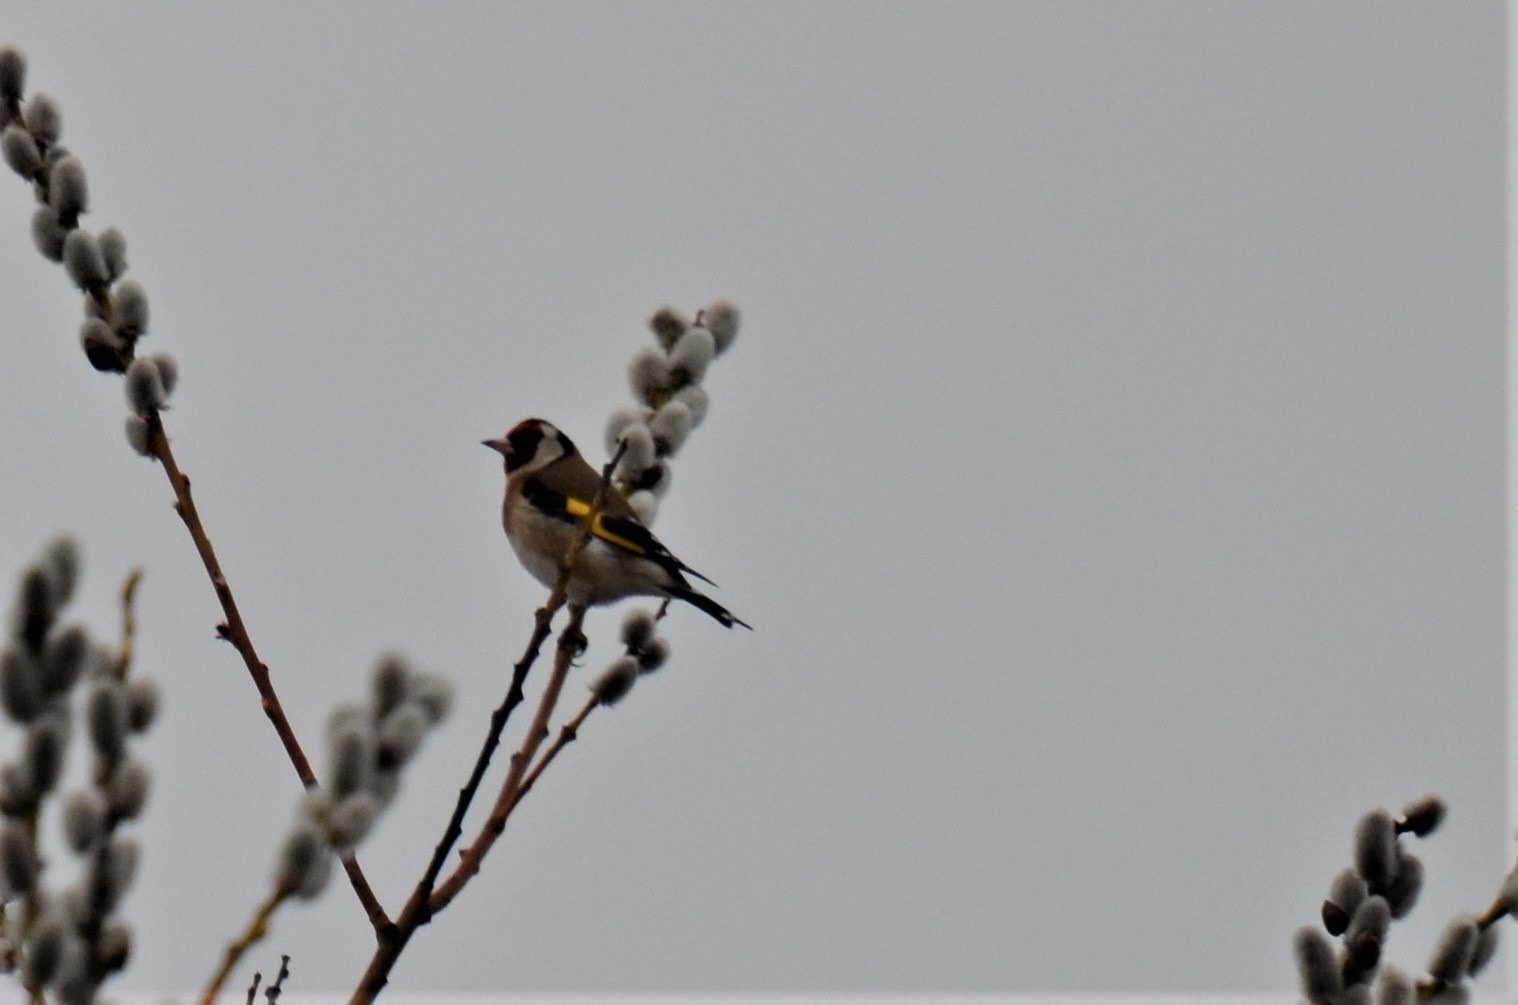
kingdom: Animalia
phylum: Chordata
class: Aves
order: Passeriformes
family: Fringillidae
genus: Carduelis
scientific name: Carduelis carduelis
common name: European goldfinch
